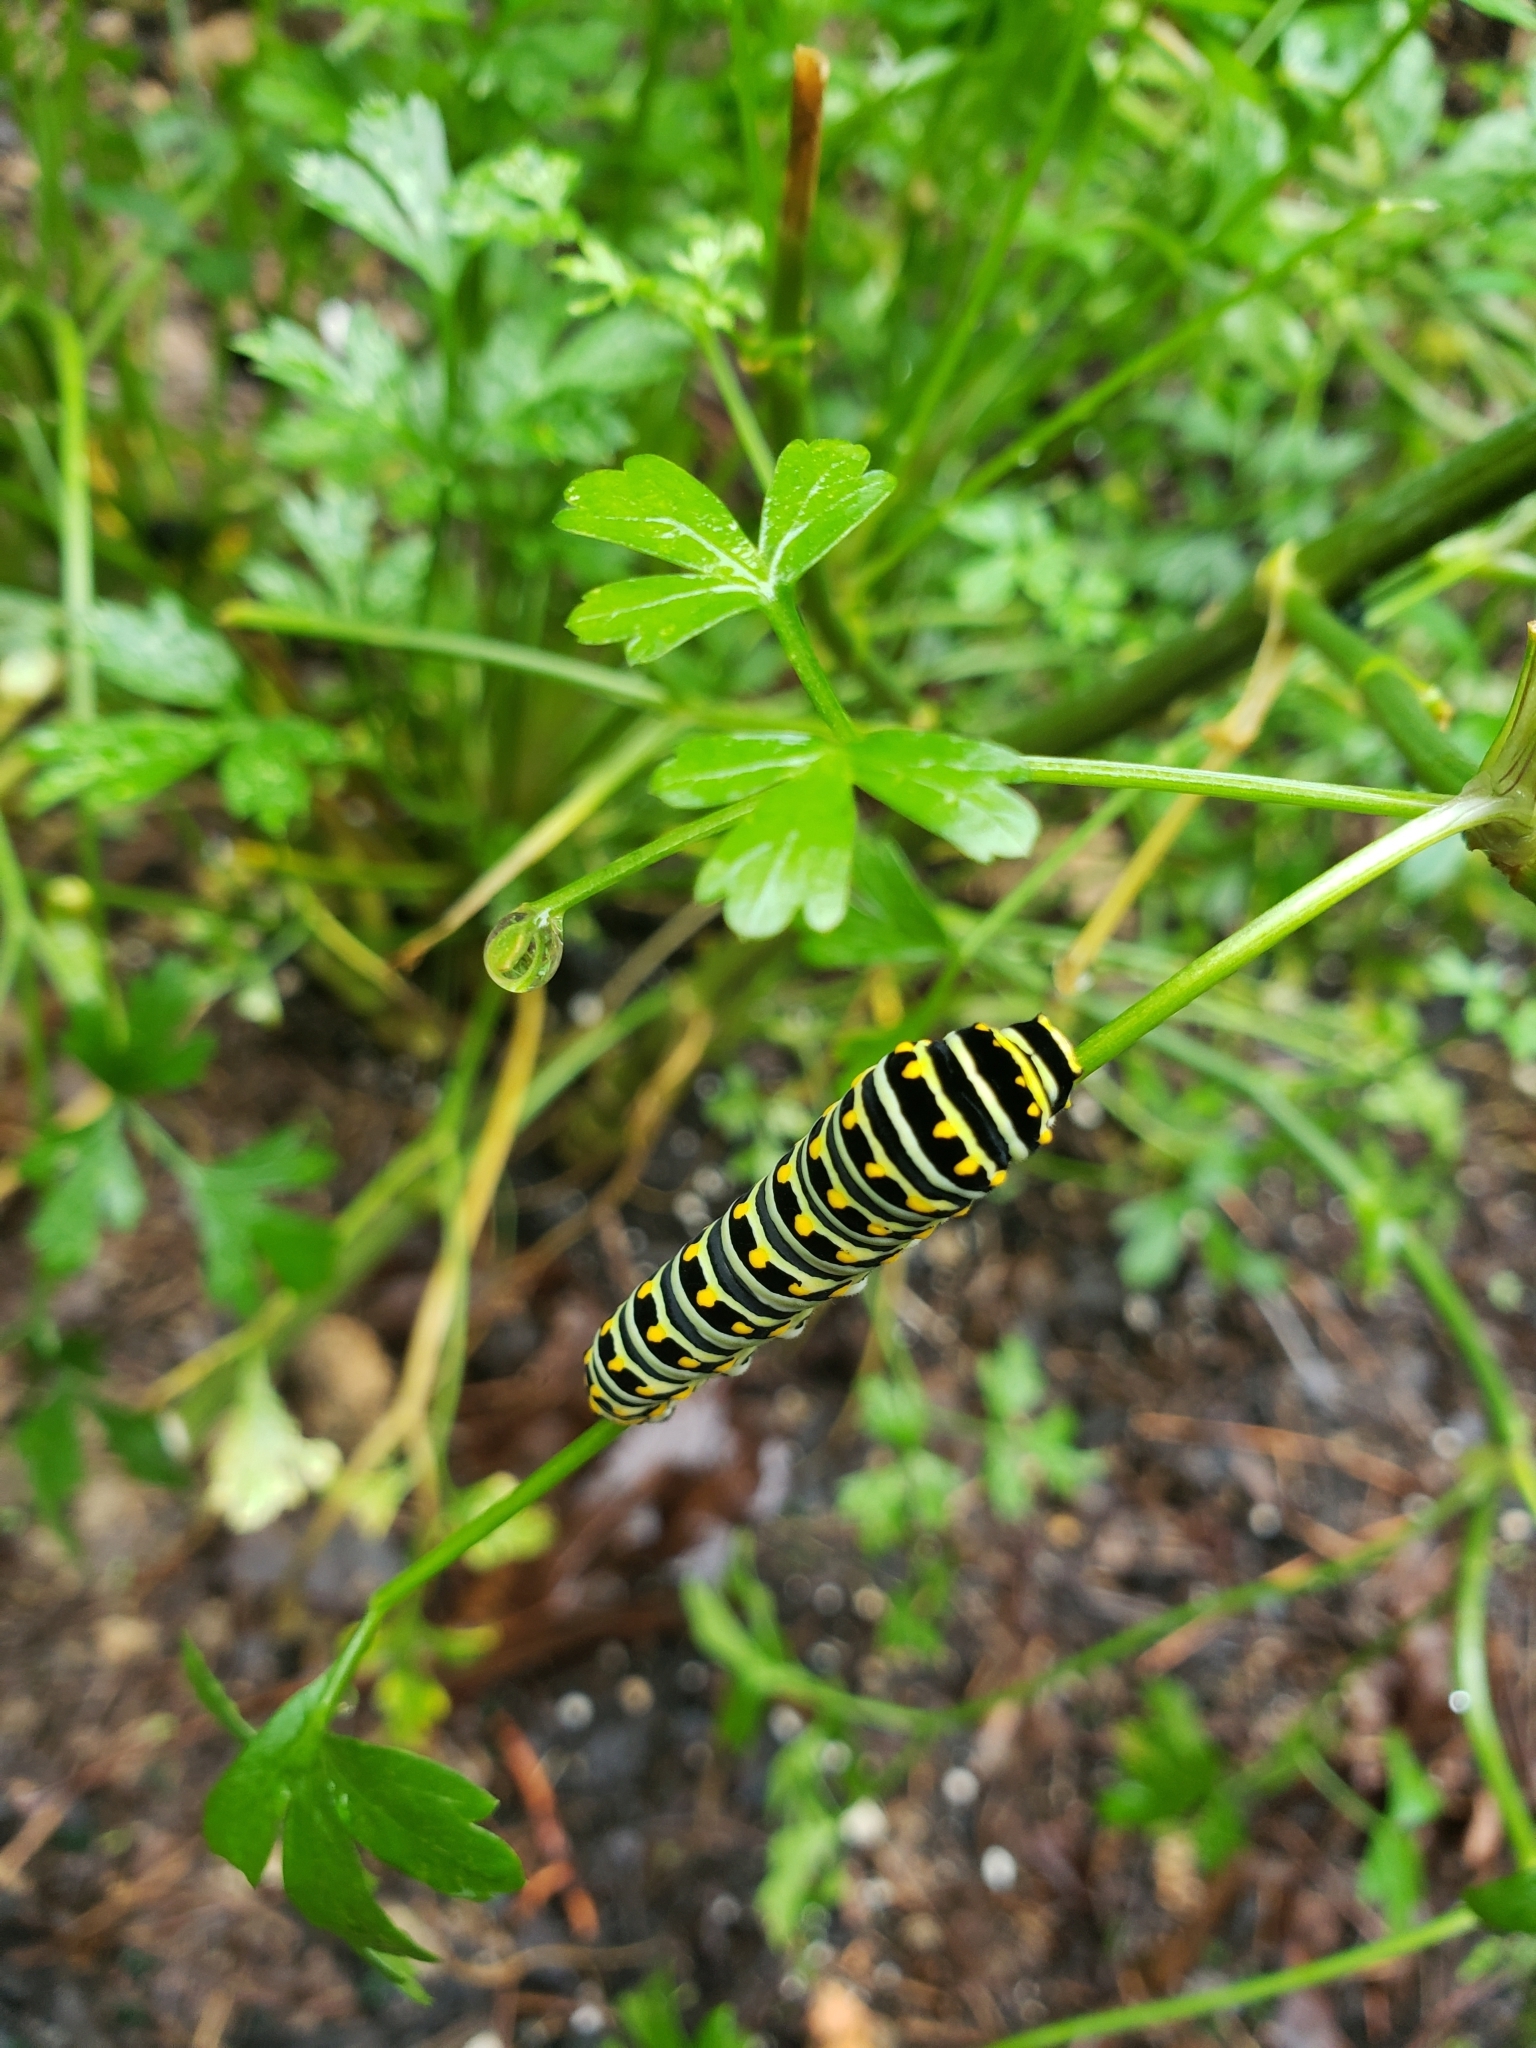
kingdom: Animalia
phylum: Arthropoda
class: Insecta
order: Lepidoptera
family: Papilionidae
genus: Papilio
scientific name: Papilio polyxenes
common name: Black swallowtail
